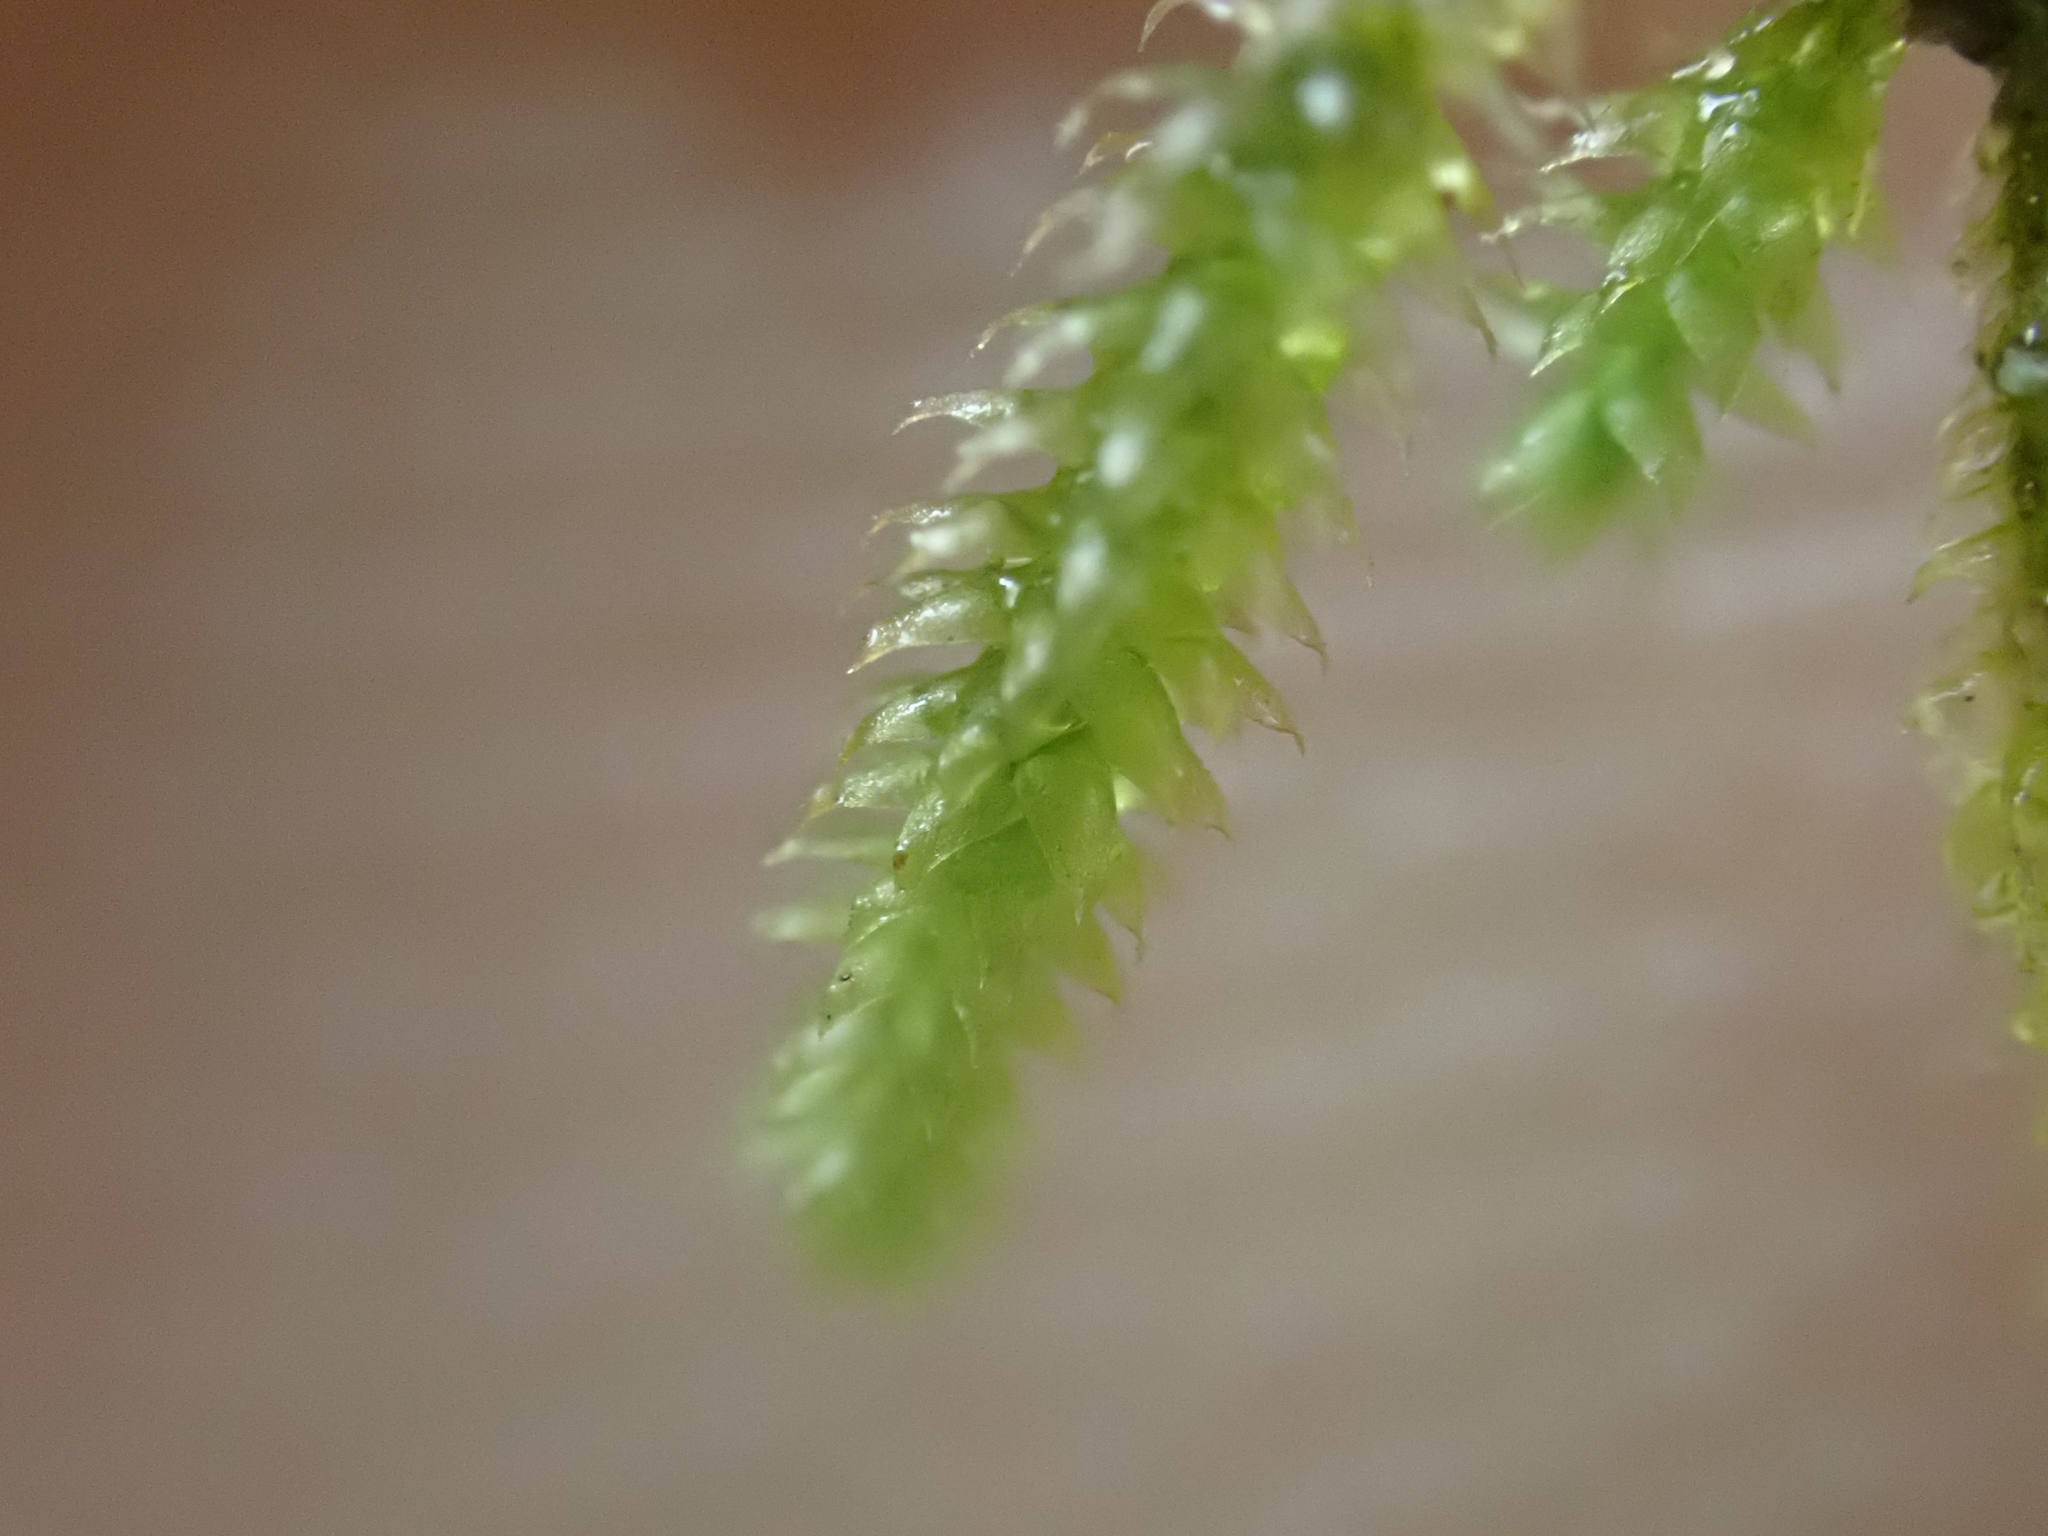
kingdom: Plantae
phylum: Bryophyta
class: Bryopsida
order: Hypnales
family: Lembophyllaceae
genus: Nogopterium
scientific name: Nogopterium gracile
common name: Bird's-foot wing-moss
